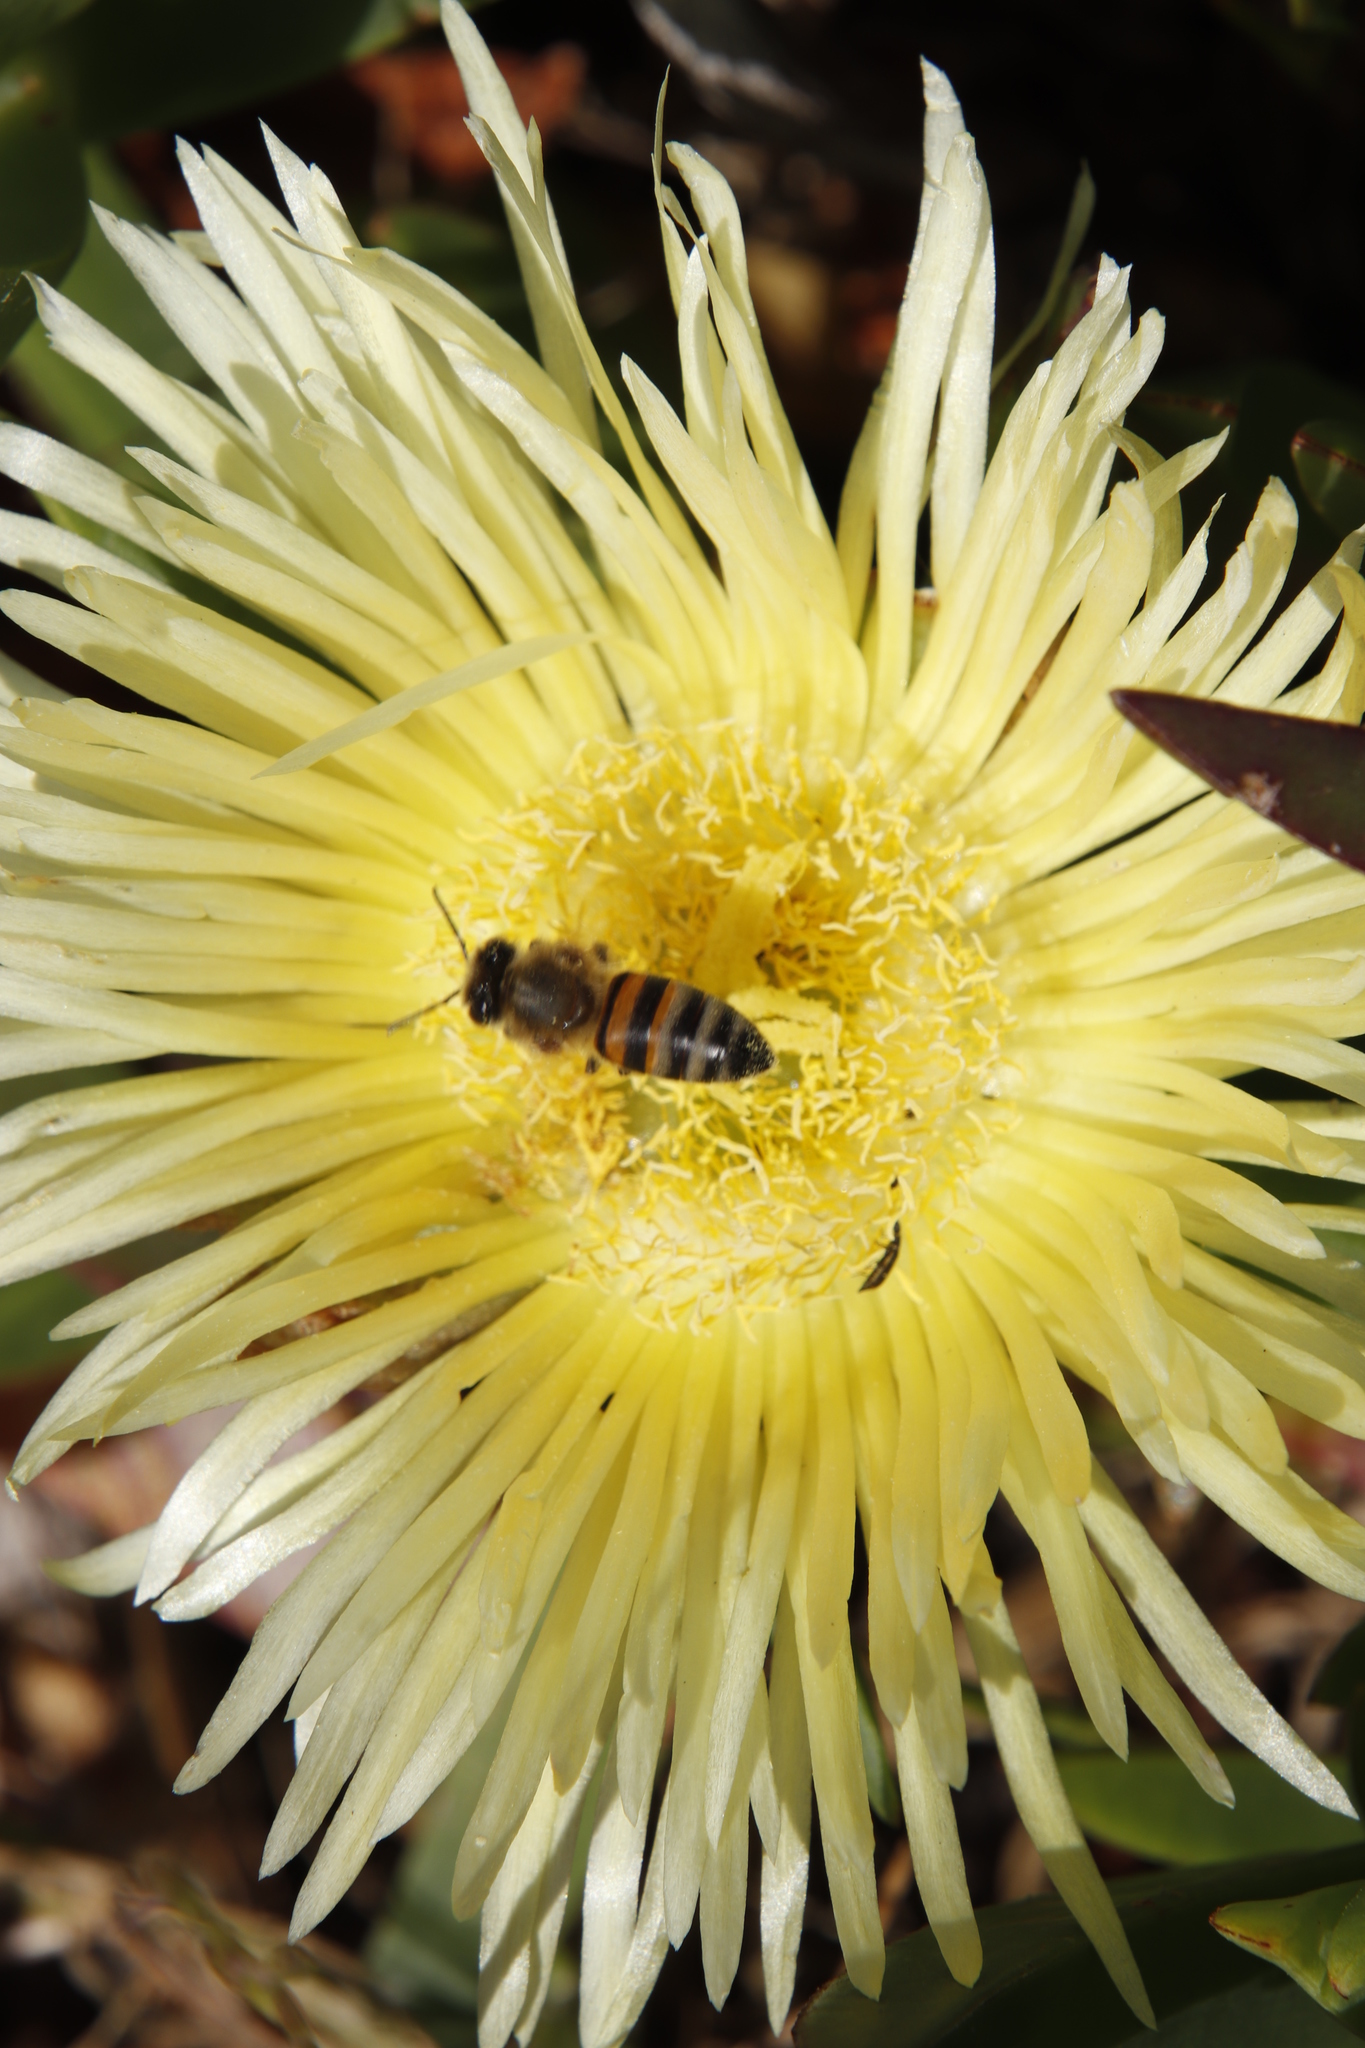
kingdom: Animalia
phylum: Arthropoda
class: Insecta
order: Hymenoptera
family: Apidae
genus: Apis
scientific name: Apis mellifera
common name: Honey bee
